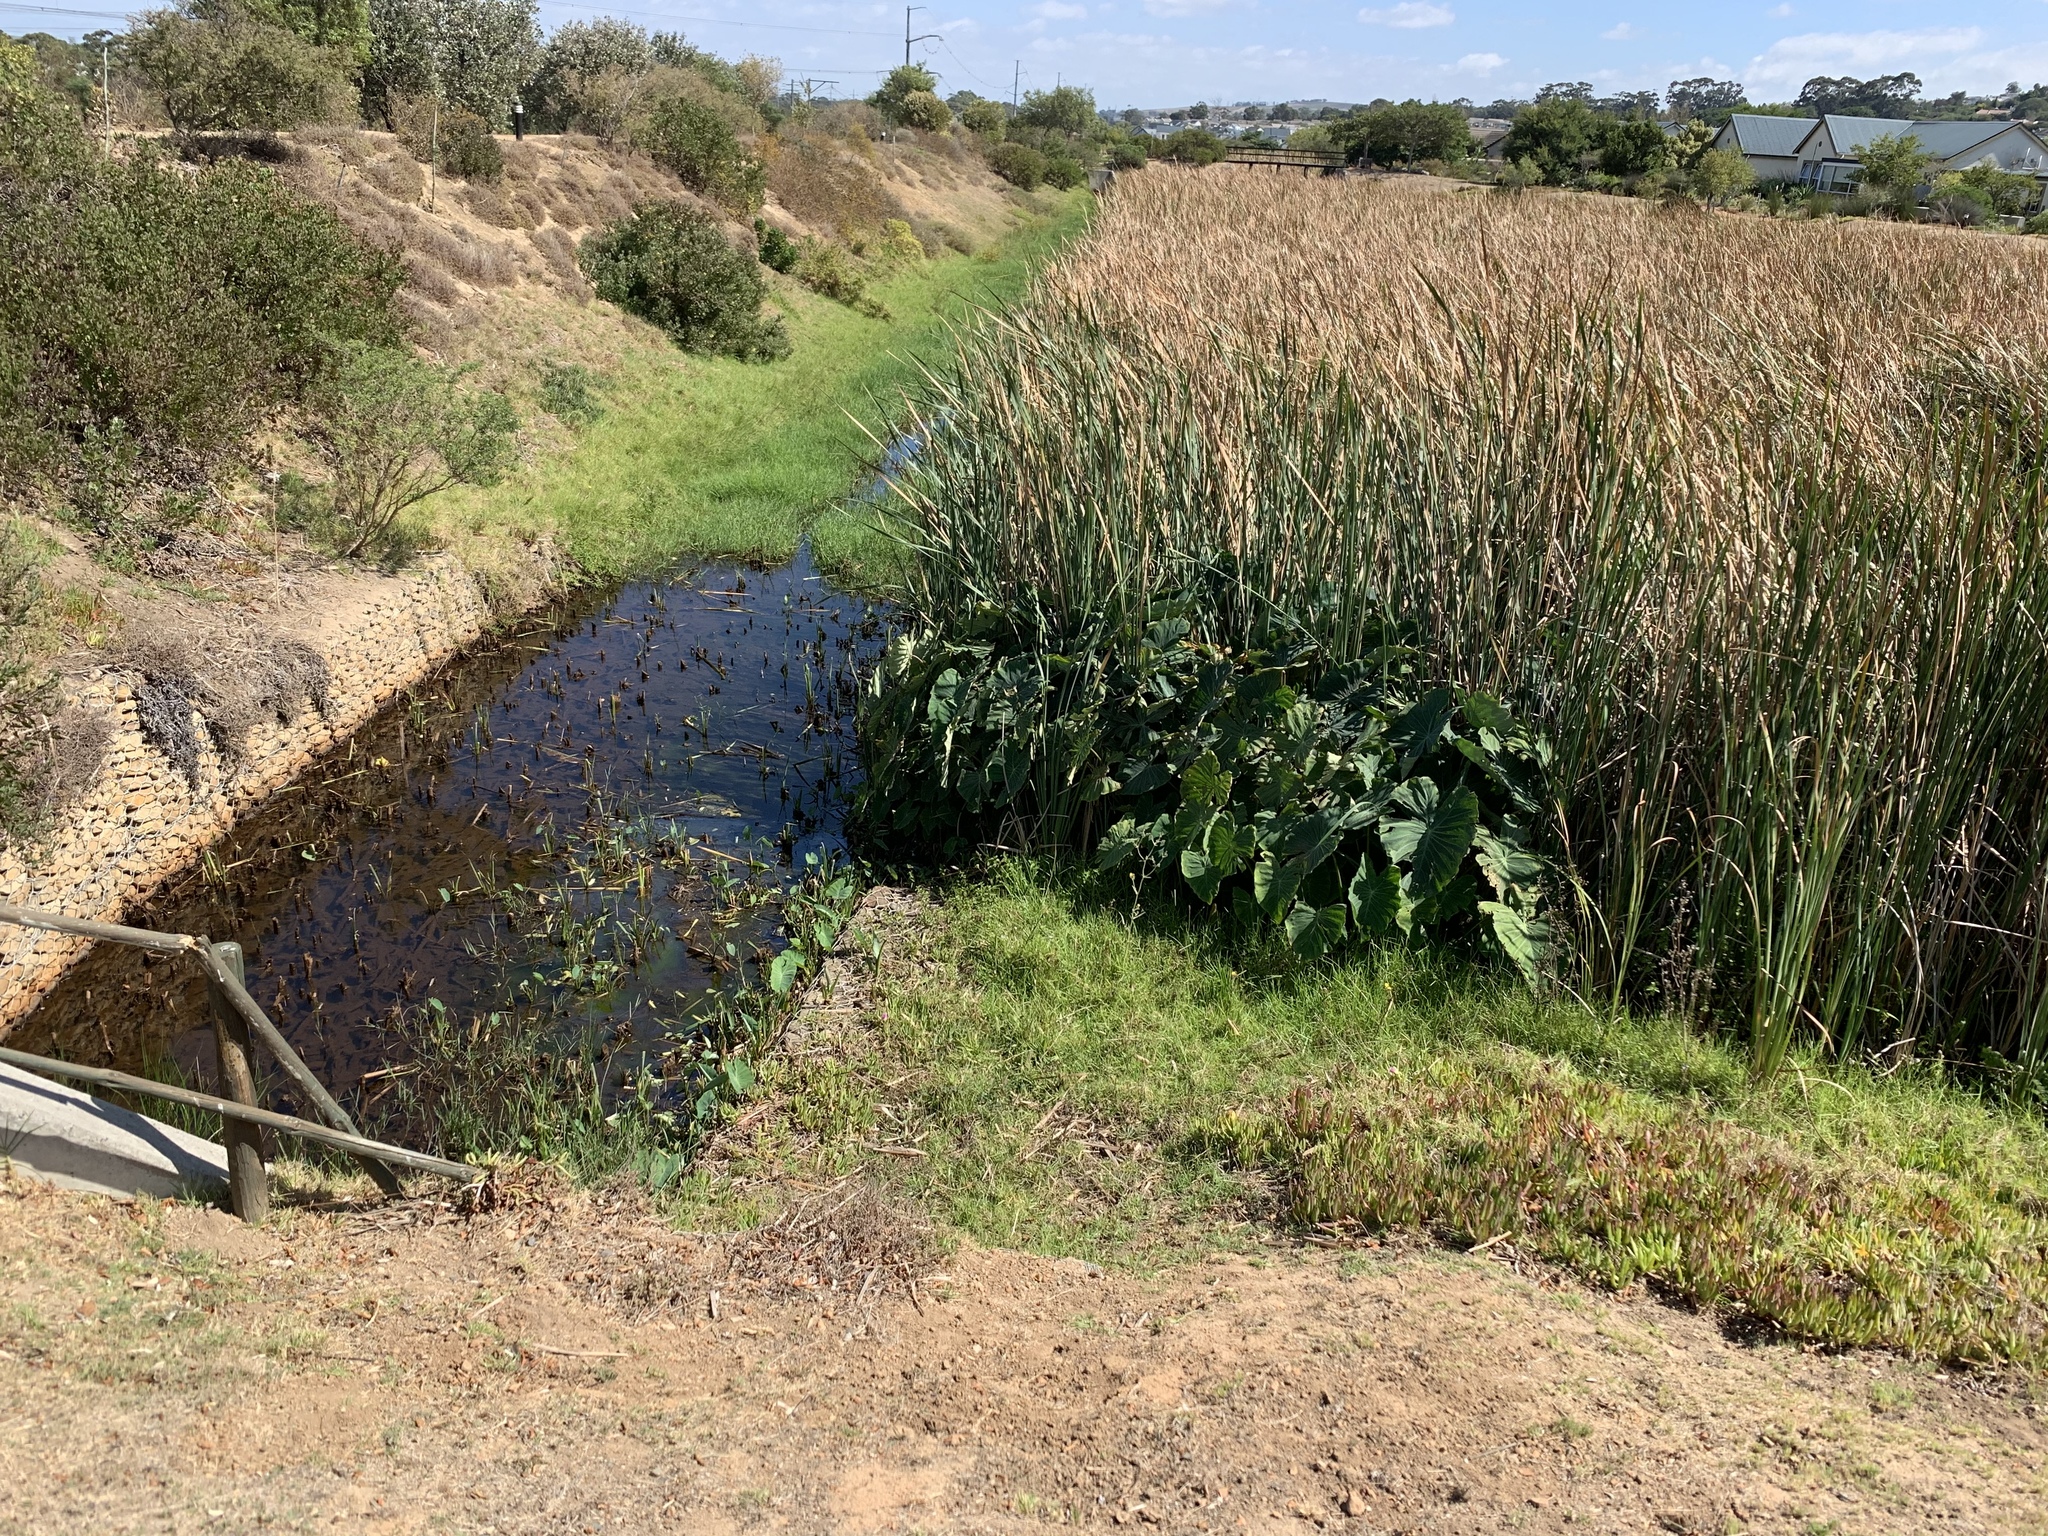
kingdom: Plantae
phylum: Tracheophyta
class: Liliopsida
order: Alismatales
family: Araceae
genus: Colocasia
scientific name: Colocasia esculenta
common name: Taro
